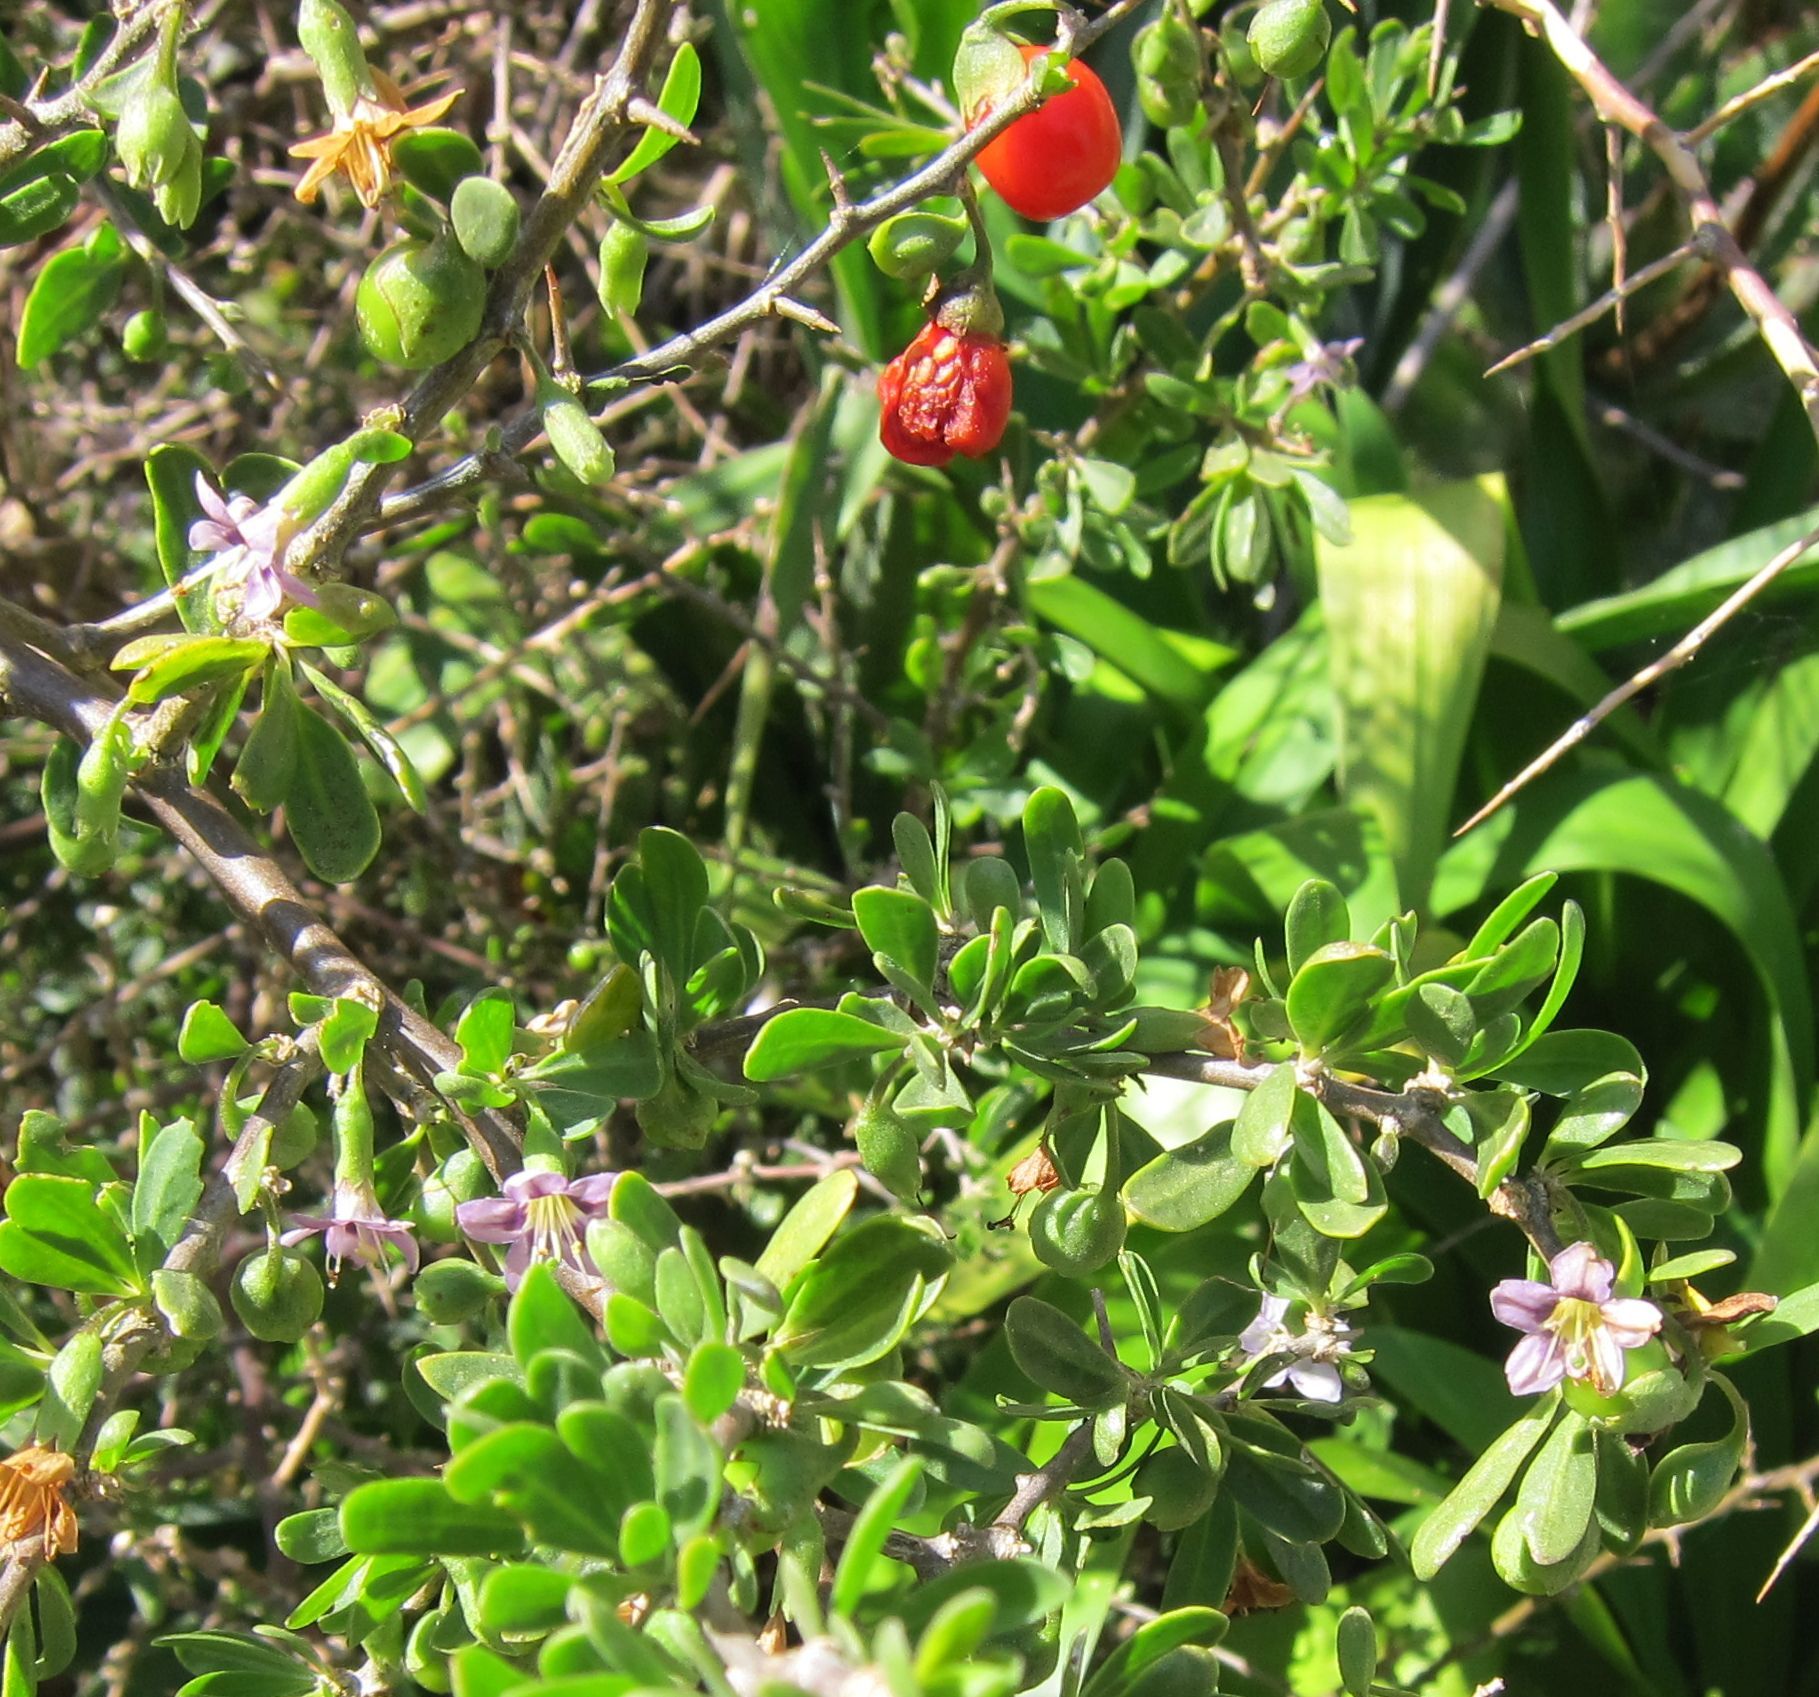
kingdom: Plantae
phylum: Tracheophyta
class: Magnoliopsida
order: Solanales
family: Solanaceae
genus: Lycium
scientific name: Lycium ferocissimum
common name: African boxthorn
